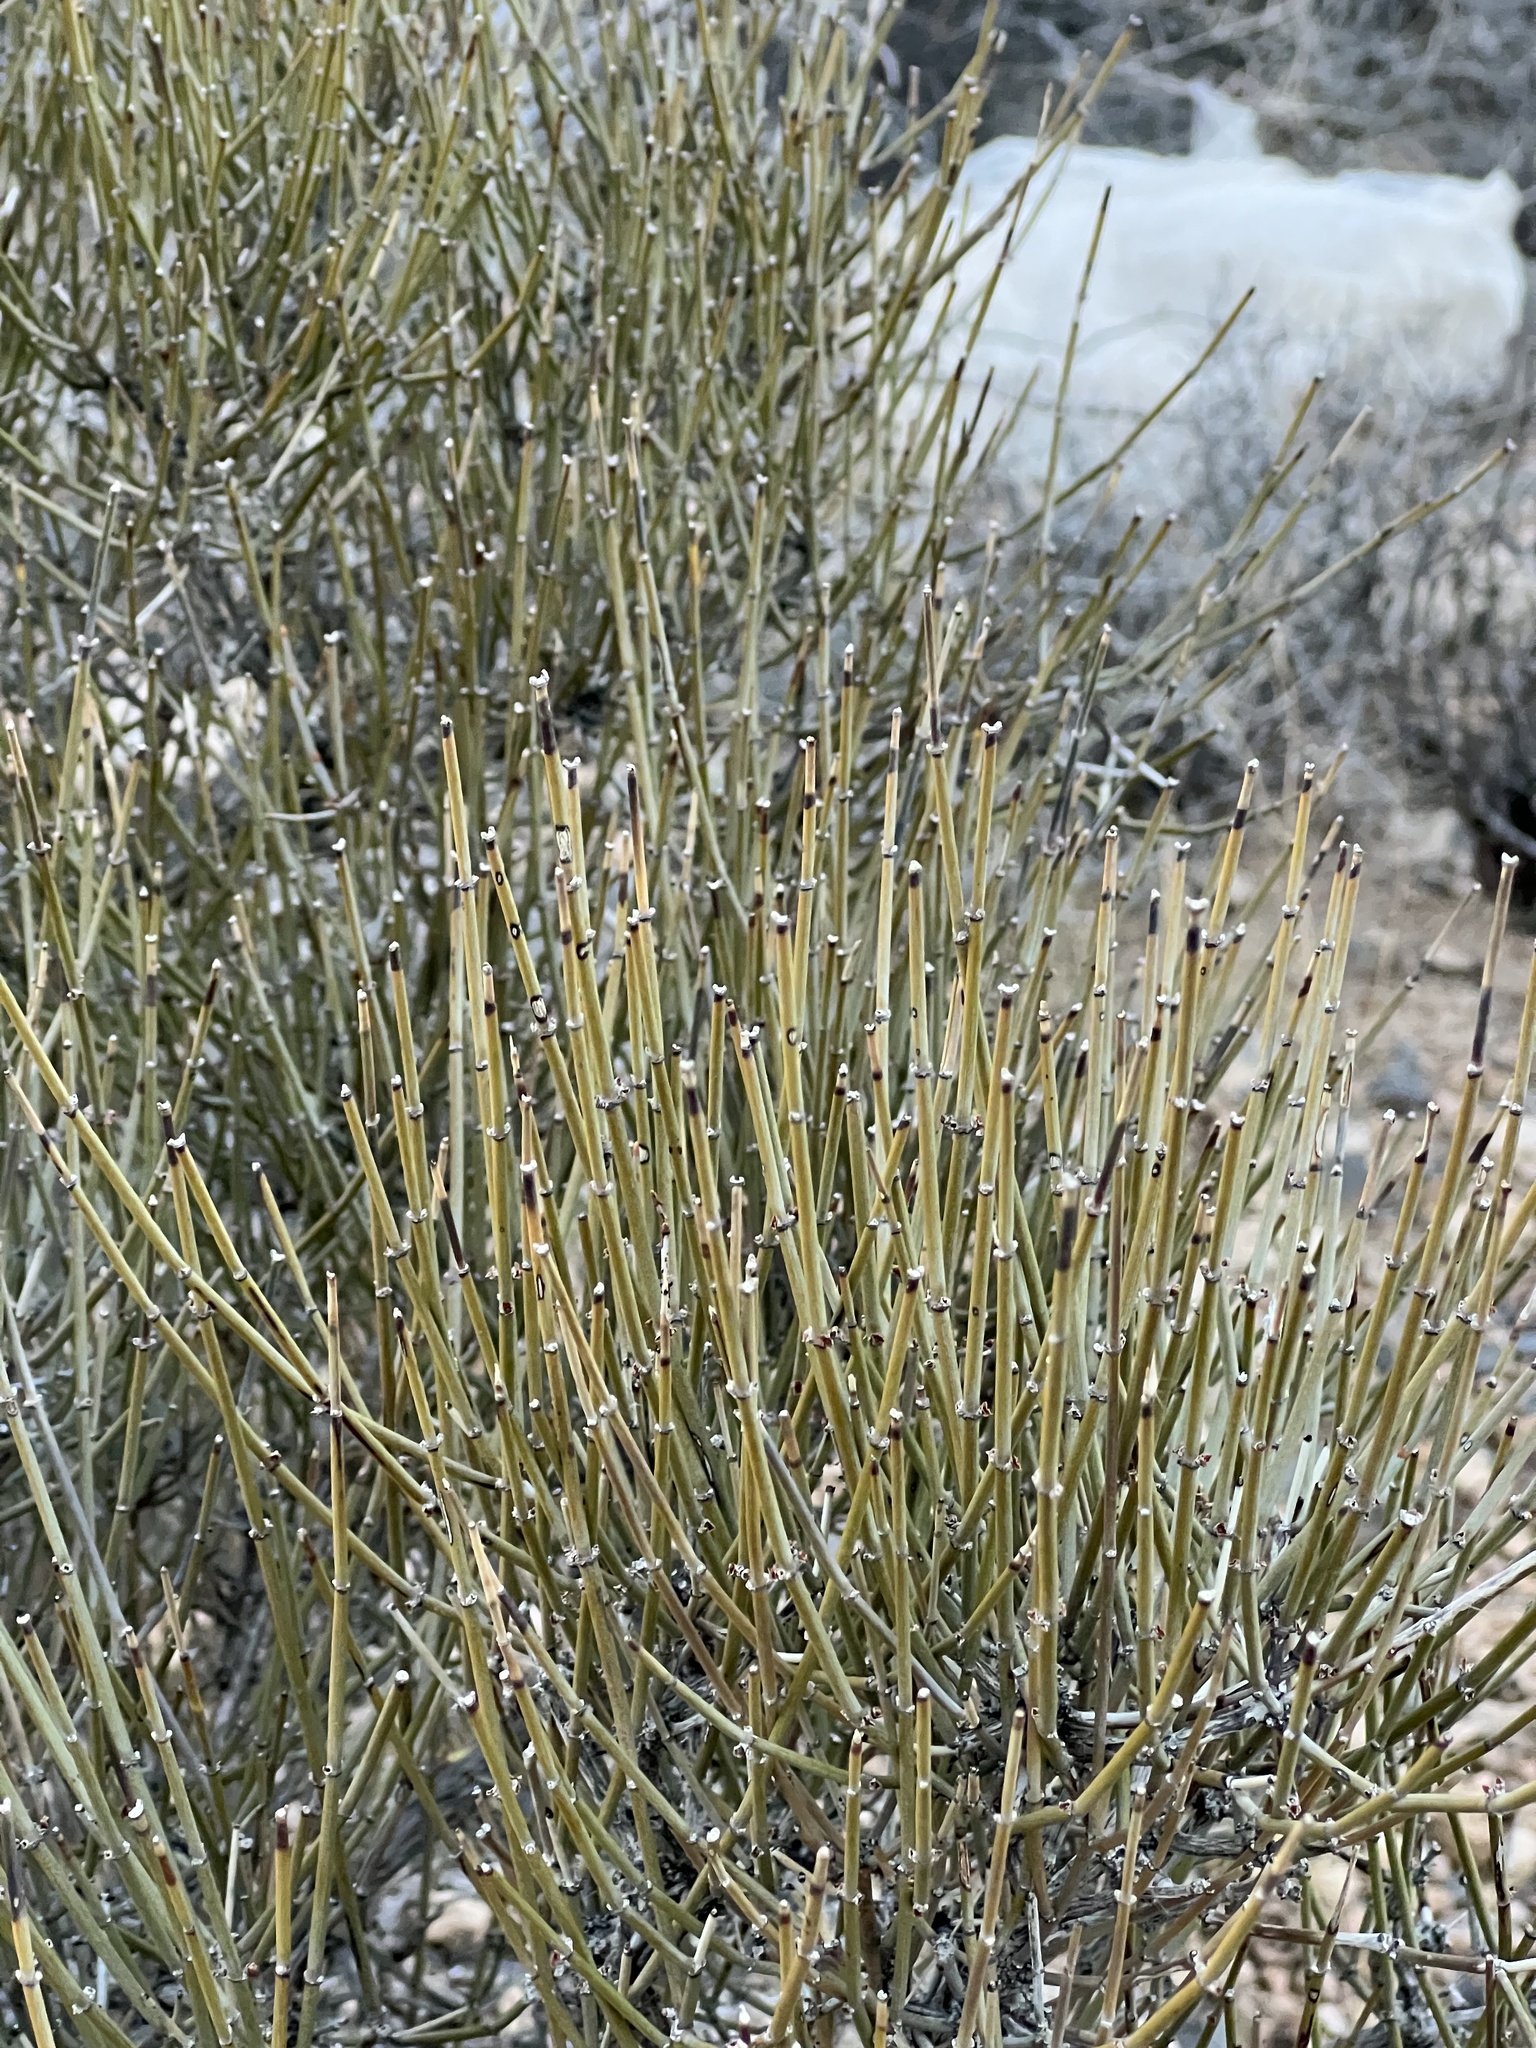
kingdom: Plantae
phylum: Tracheophyta
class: Gnetopsida
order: Ephedrales
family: Ephedraceae
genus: Ephedra
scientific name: Ephedra viridis
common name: Green ephedra
